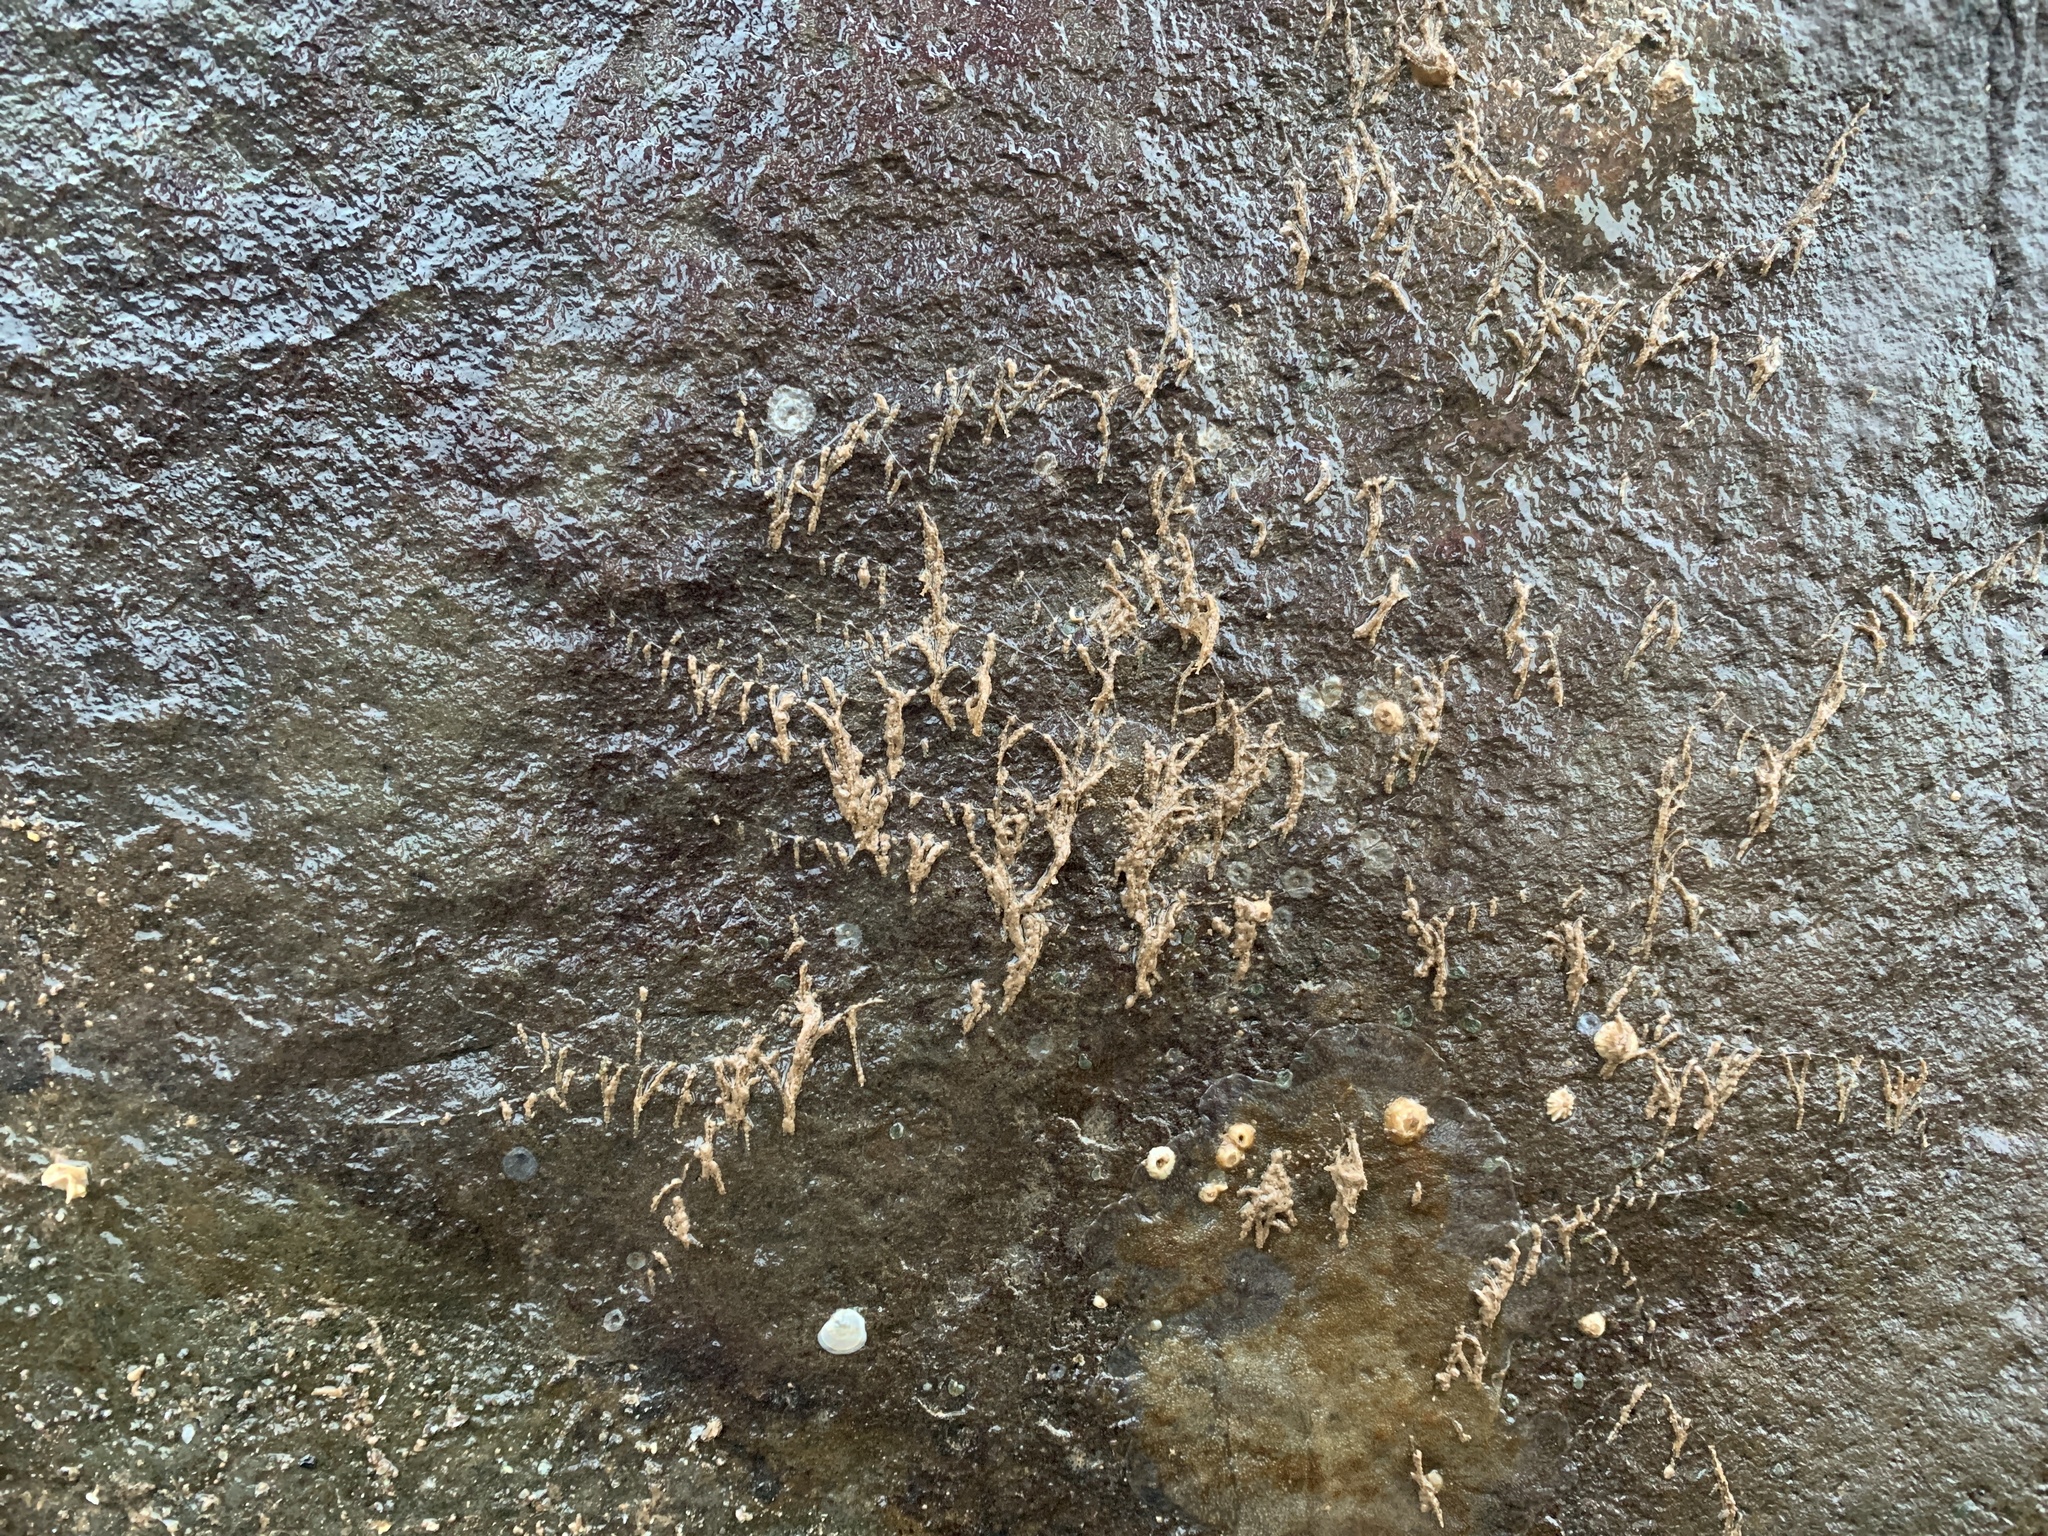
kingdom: Animalia
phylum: Cnidaria
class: Hydrozoa
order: Leptothecata
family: Sertulariidae
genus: Dynamena
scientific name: Dynamena pumila
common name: Sea oak
